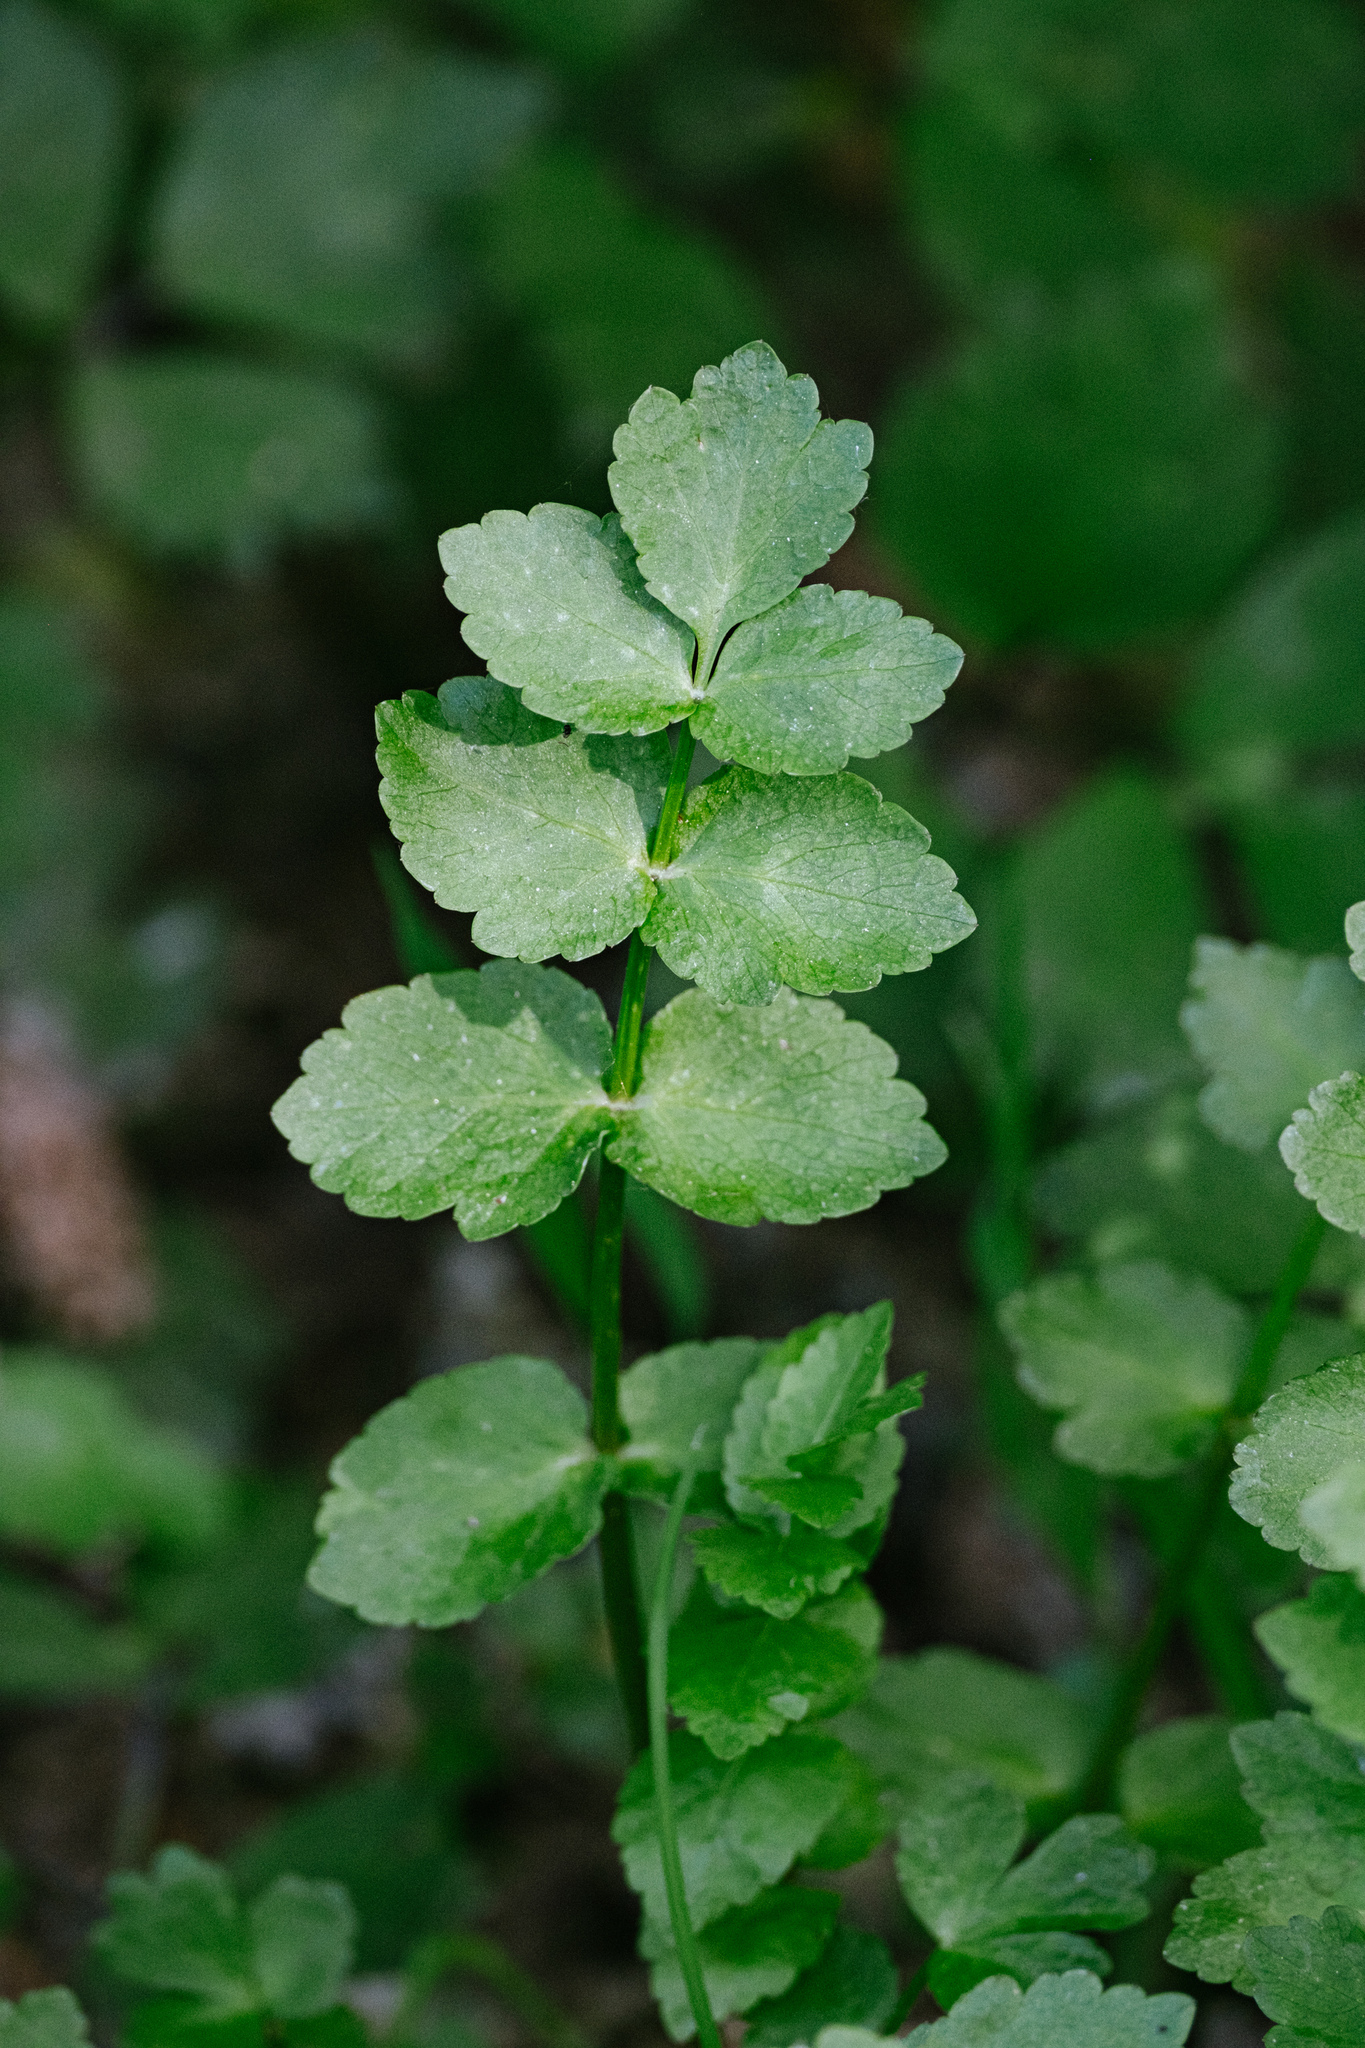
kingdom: Plantae
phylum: Tracheophyta
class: Magnoliopsida
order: Apiales
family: Apiaceae
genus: Helosciadium
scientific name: Helosciadium nodiflorum
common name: Fool's-watercress
